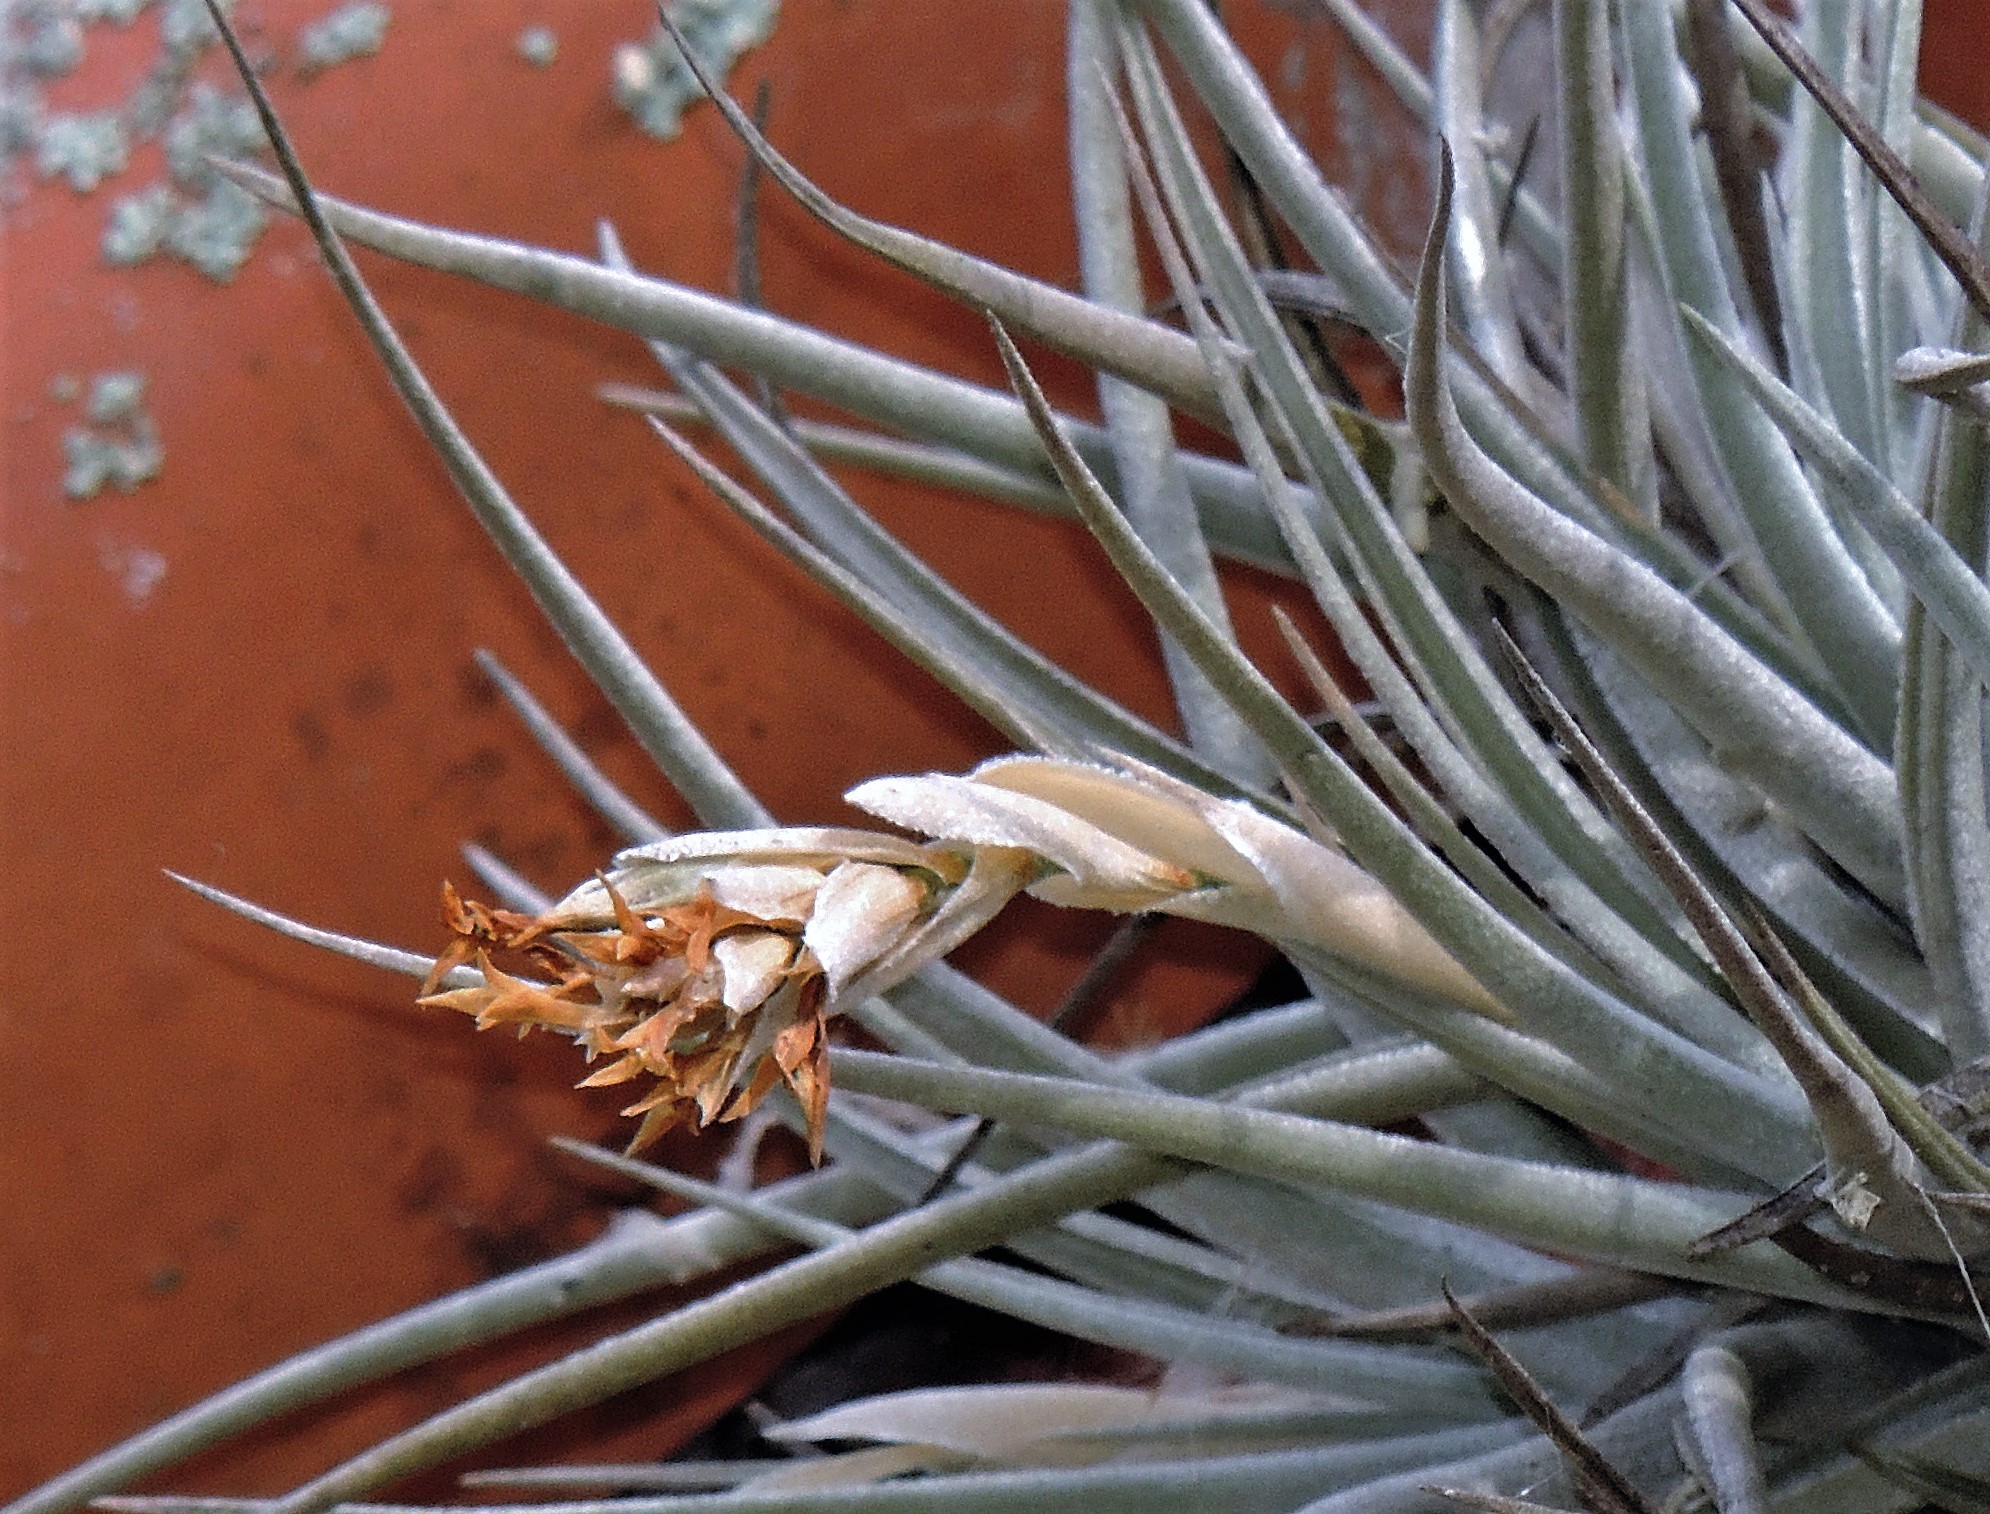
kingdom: Plantae
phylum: Tracheophyta
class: Liliopsida
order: Poales
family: Bromeliaceae
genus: Tillandsia
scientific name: Tillandsia ixioides
